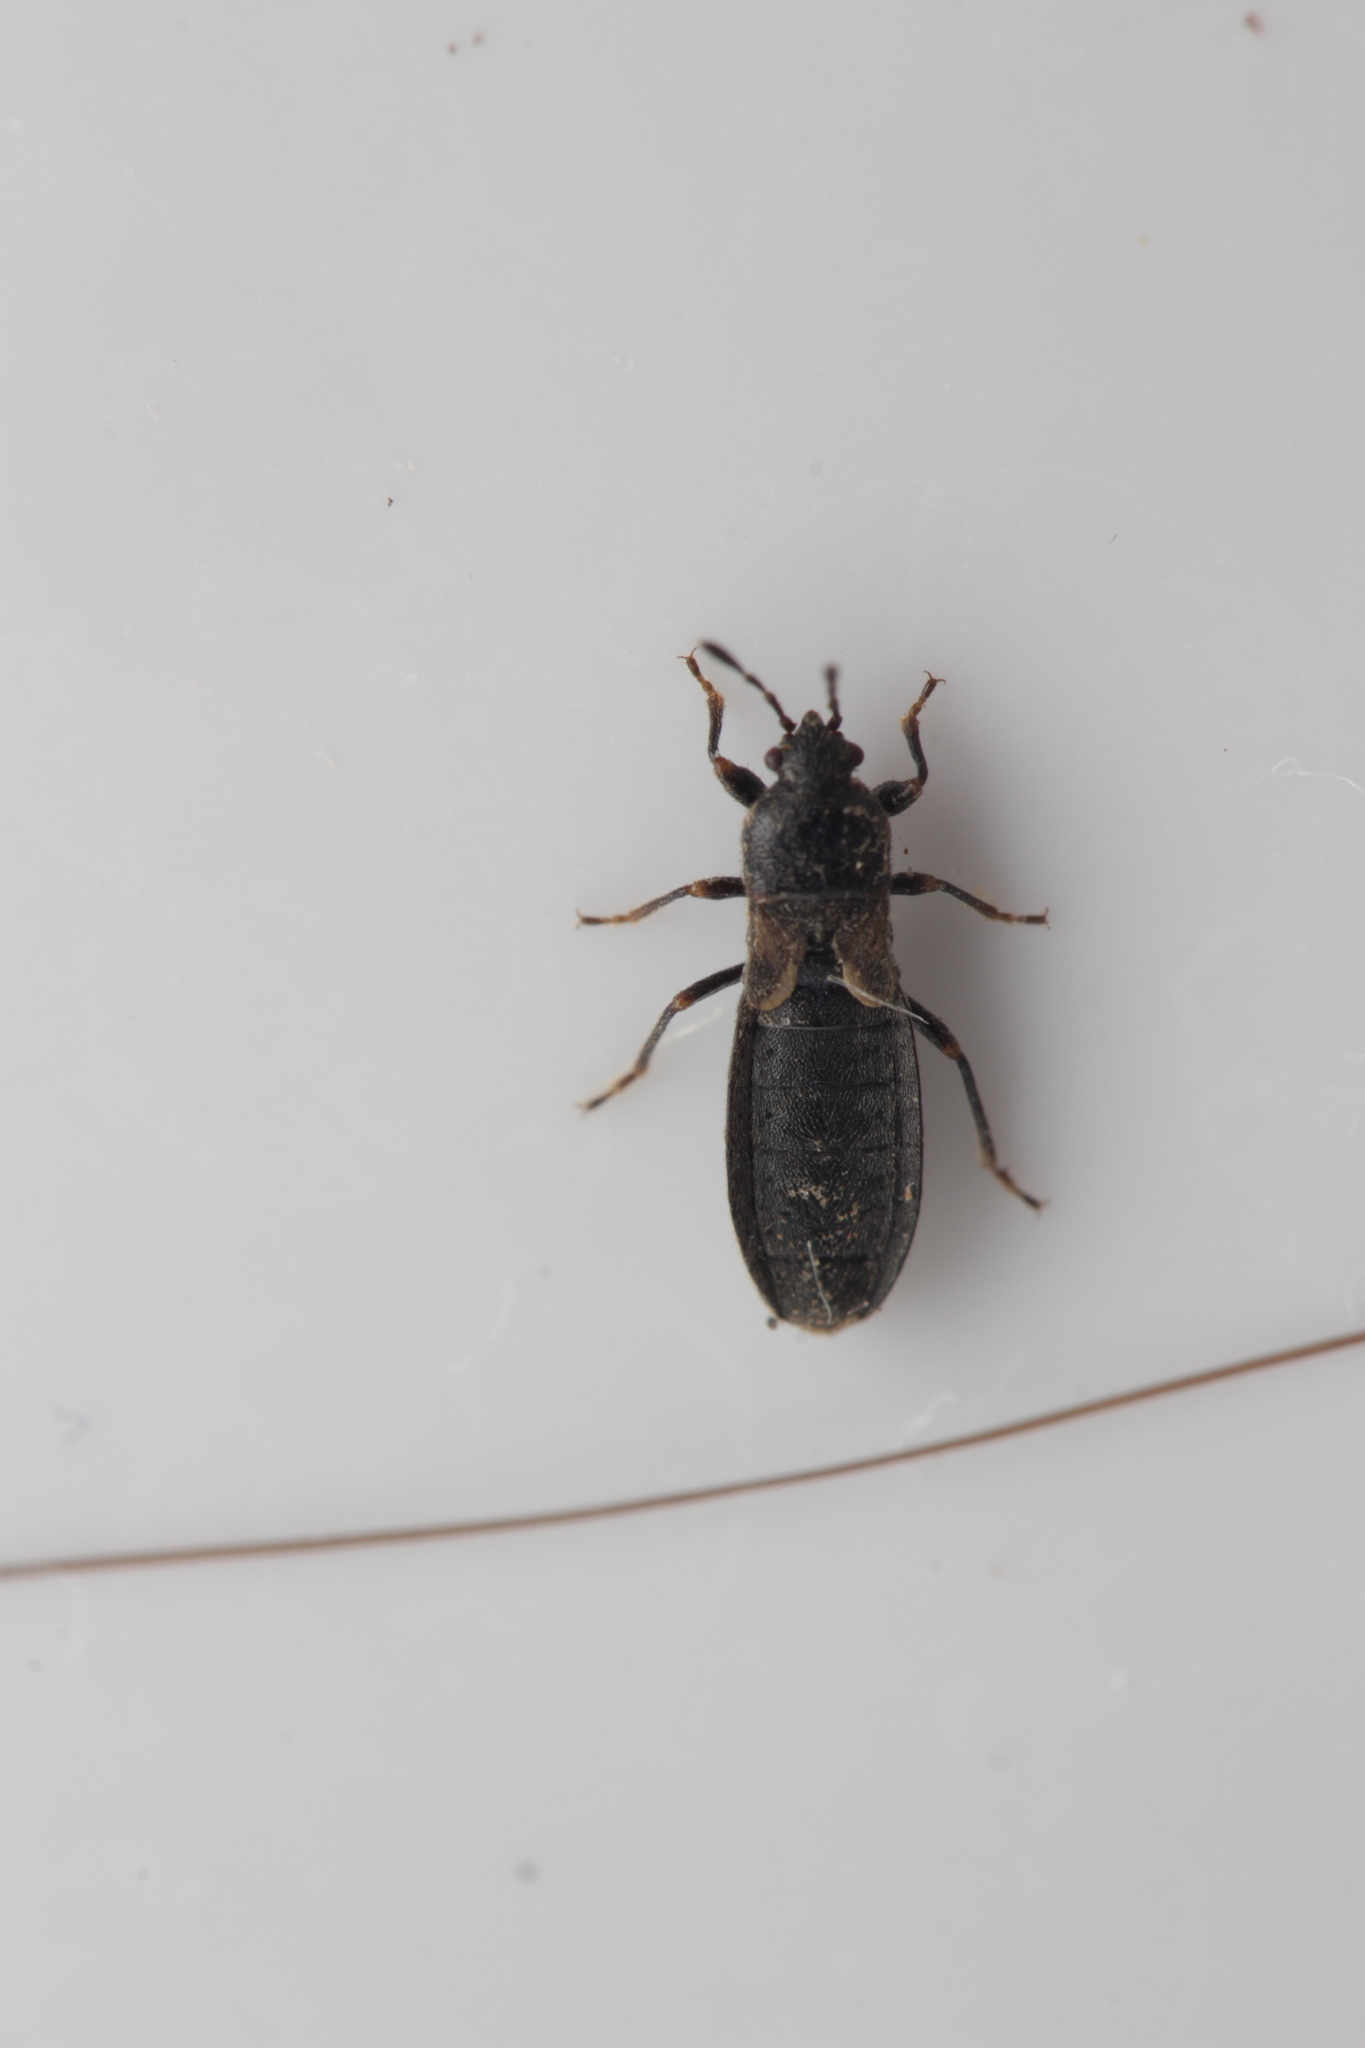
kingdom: Animalia
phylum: Arthropoda
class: Insecta
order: Hemiptera
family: Blissidae
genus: Dimorphopterus
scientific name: Dimorphopterus spinolae
